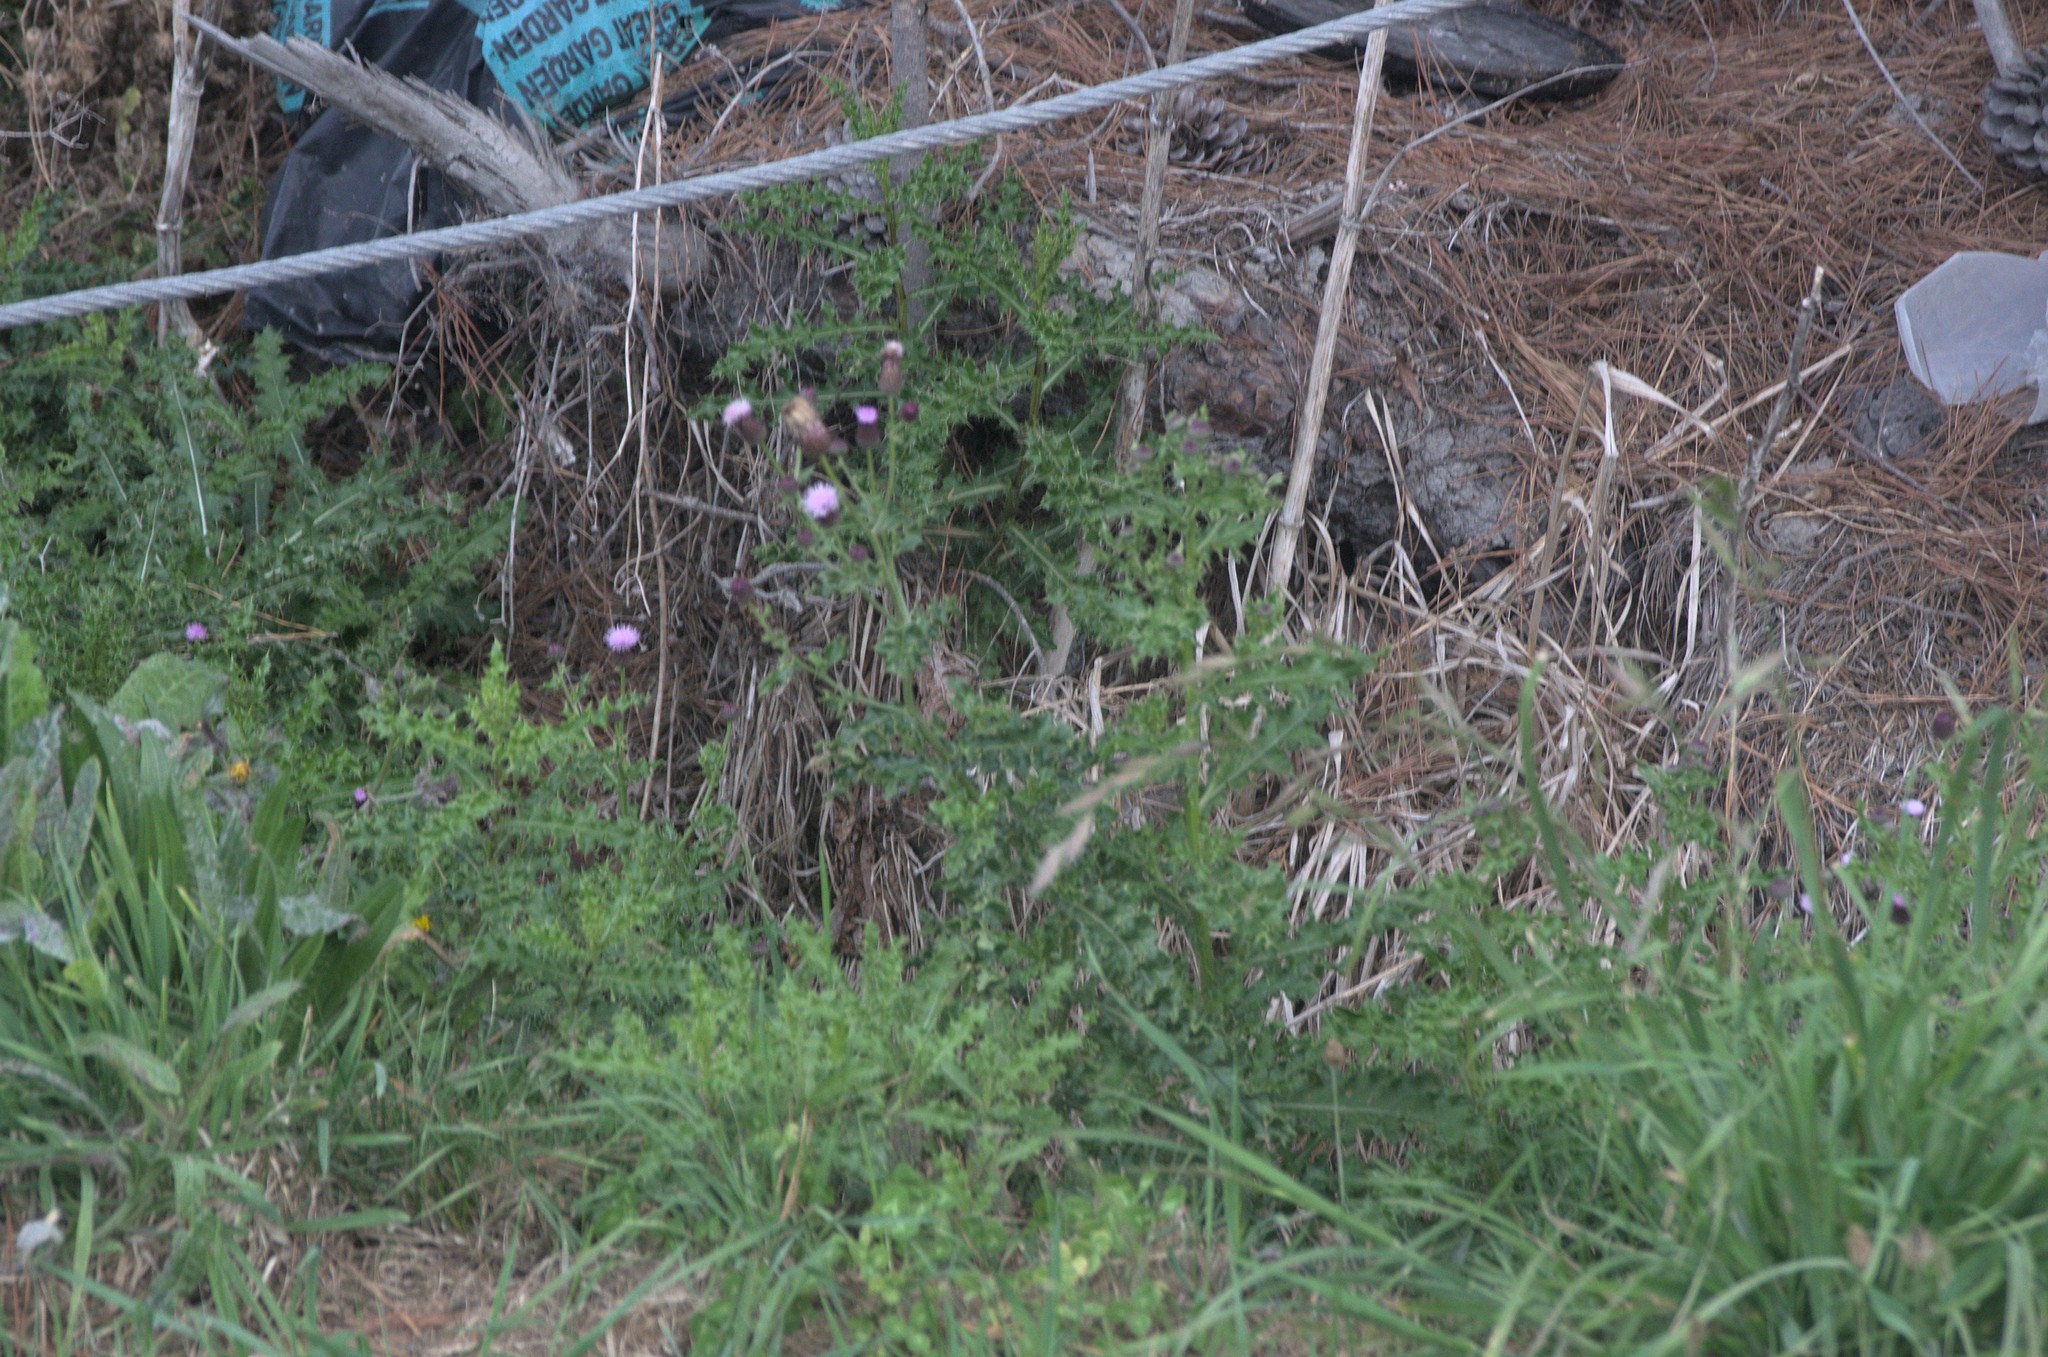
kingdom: Plantae
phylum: Tracheophyta
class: Magnoliopsida
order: Asterales
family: Asteraceae
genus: Cirsium
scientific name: Cirsium arvense
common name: Creeping thistle
